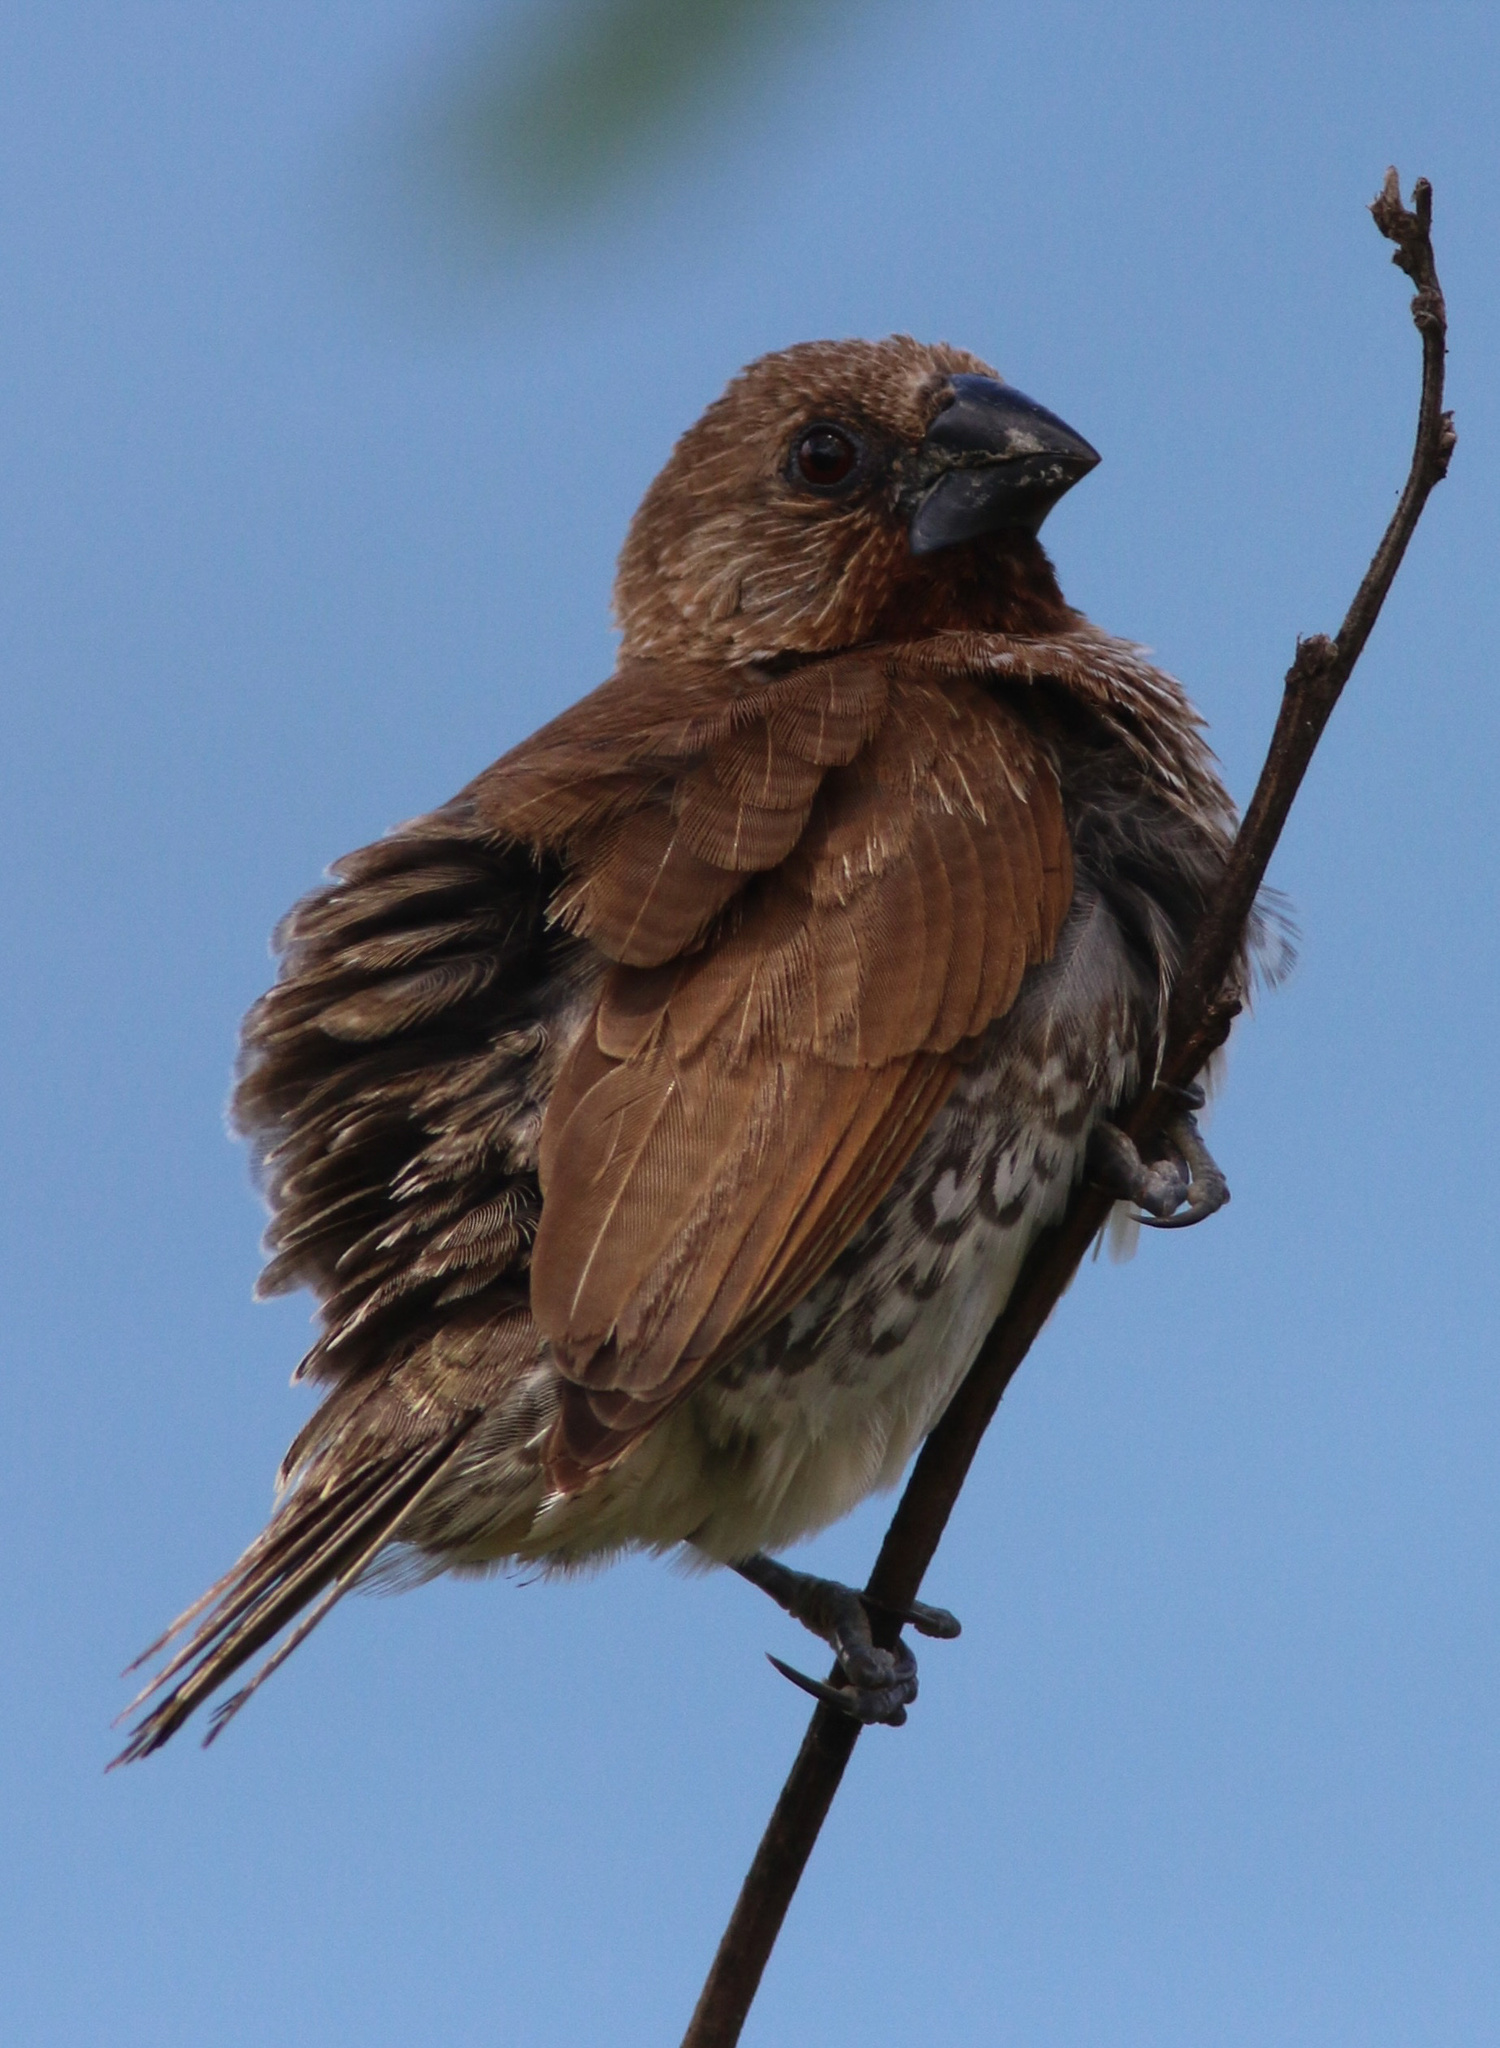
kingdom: Animalia
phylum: Chordata
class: Aves
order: Passeriformes
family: Estrildidae
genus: Lonchura
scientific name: Lonchura punctulata
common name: Scaly-breasted munia
